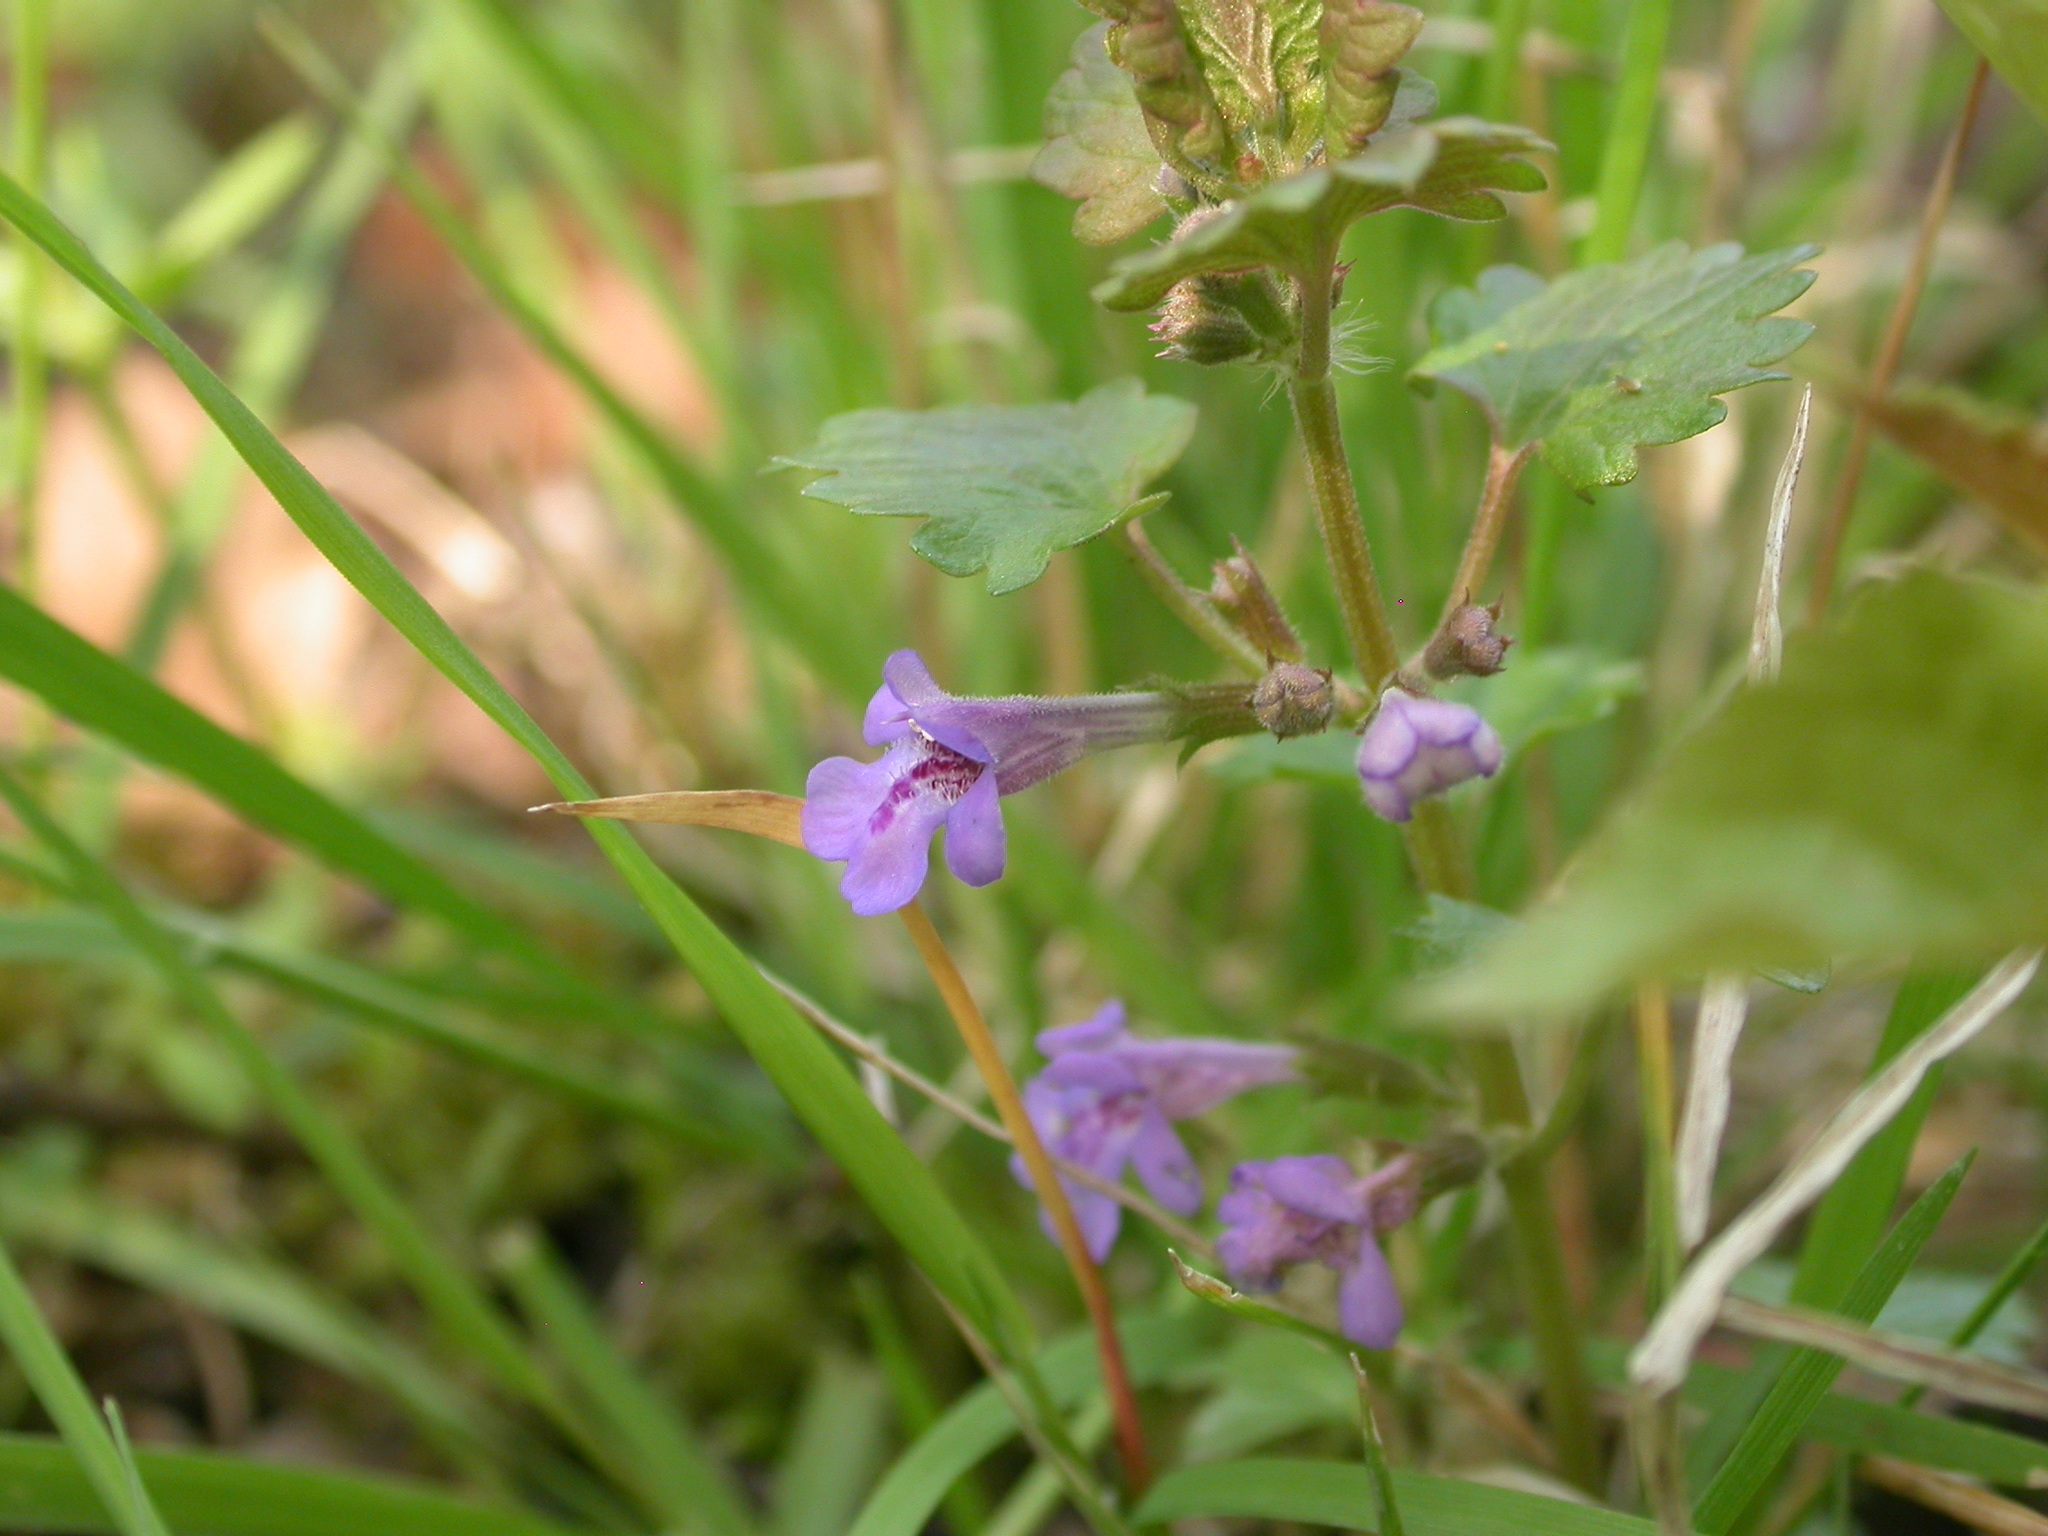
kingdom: Plantae
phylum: Tracheophyta
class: Magnoliopsida
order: Lamiales
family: Lamiaceae
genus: Glechoma
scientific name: Glechoma hederacea
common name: Ground ivy
